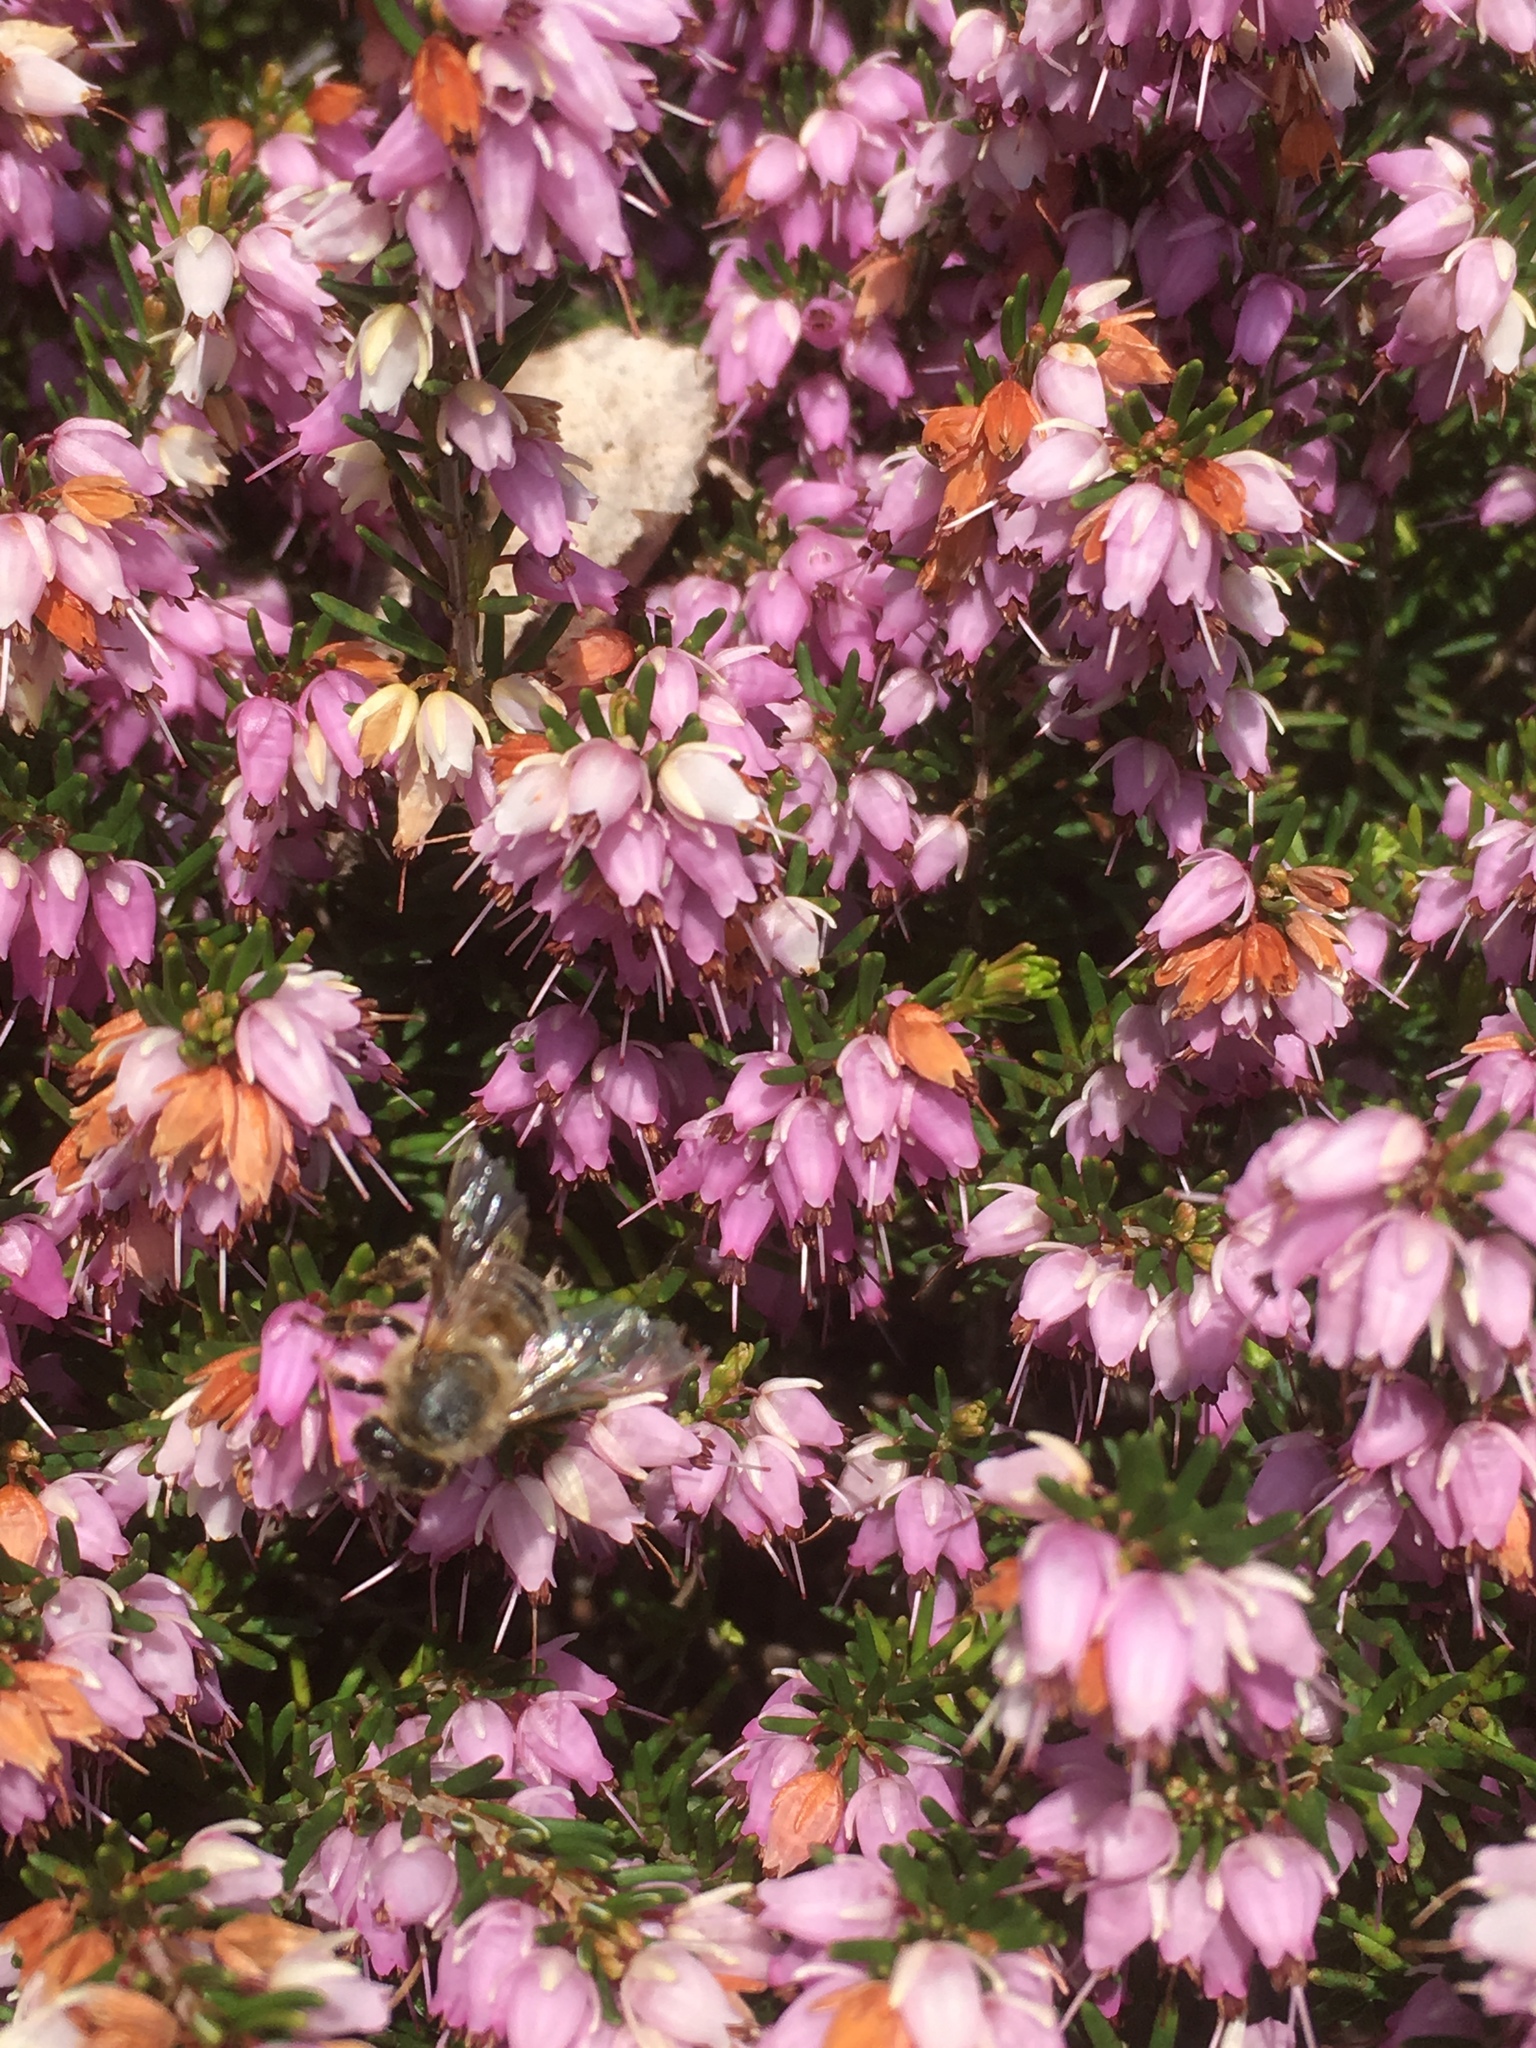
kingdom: Animalia
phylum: Arthropoda
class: Insecta
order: Hymenoptera
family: Apidae
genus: Apis
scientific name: Apis mellifera
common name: Honey bee
